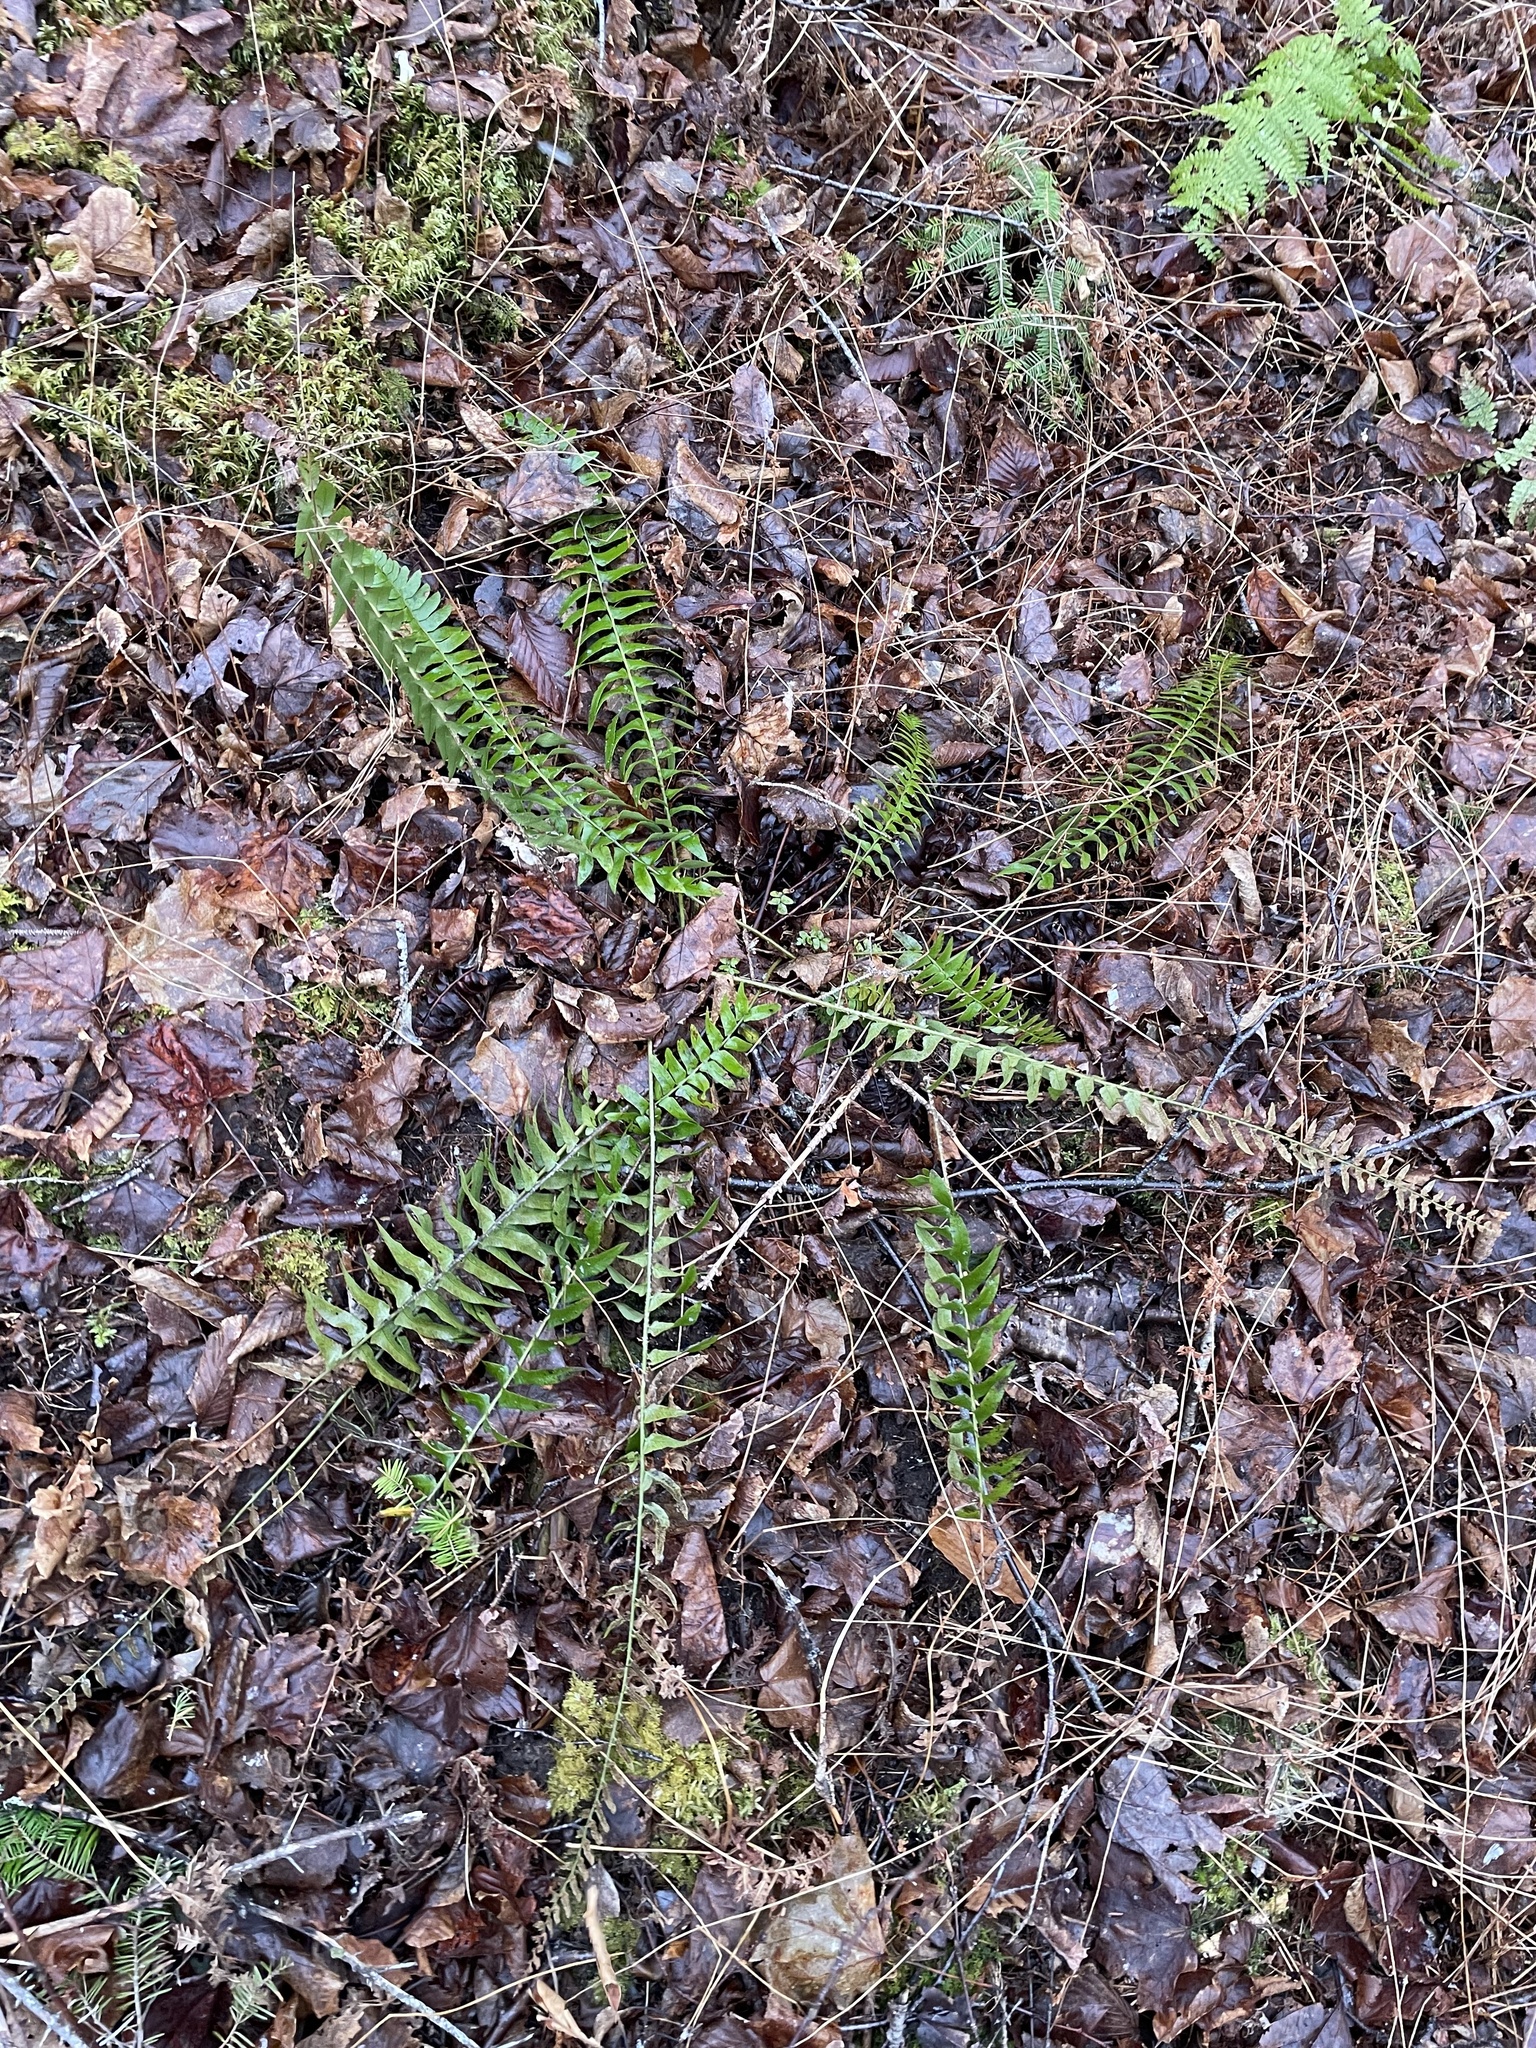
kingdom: Plantae
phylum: Tracheophyta
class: Polypodiopsida
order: Polypodiales
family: Dryopteridaceae
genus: Polystichum
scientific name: Polystichum acrostichoides
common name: Christmas fern
